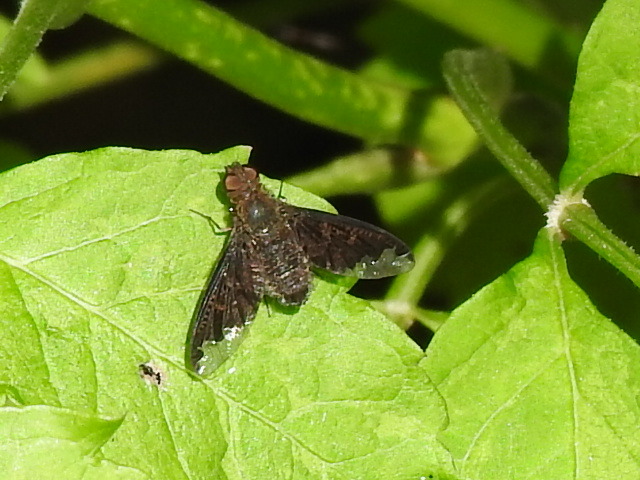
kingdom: Animalia
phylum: Arthropoda
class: Insecta
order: Diptera
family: Bombyliidae
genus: Hemipenthes
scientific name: Hemipenthes sinuosus
